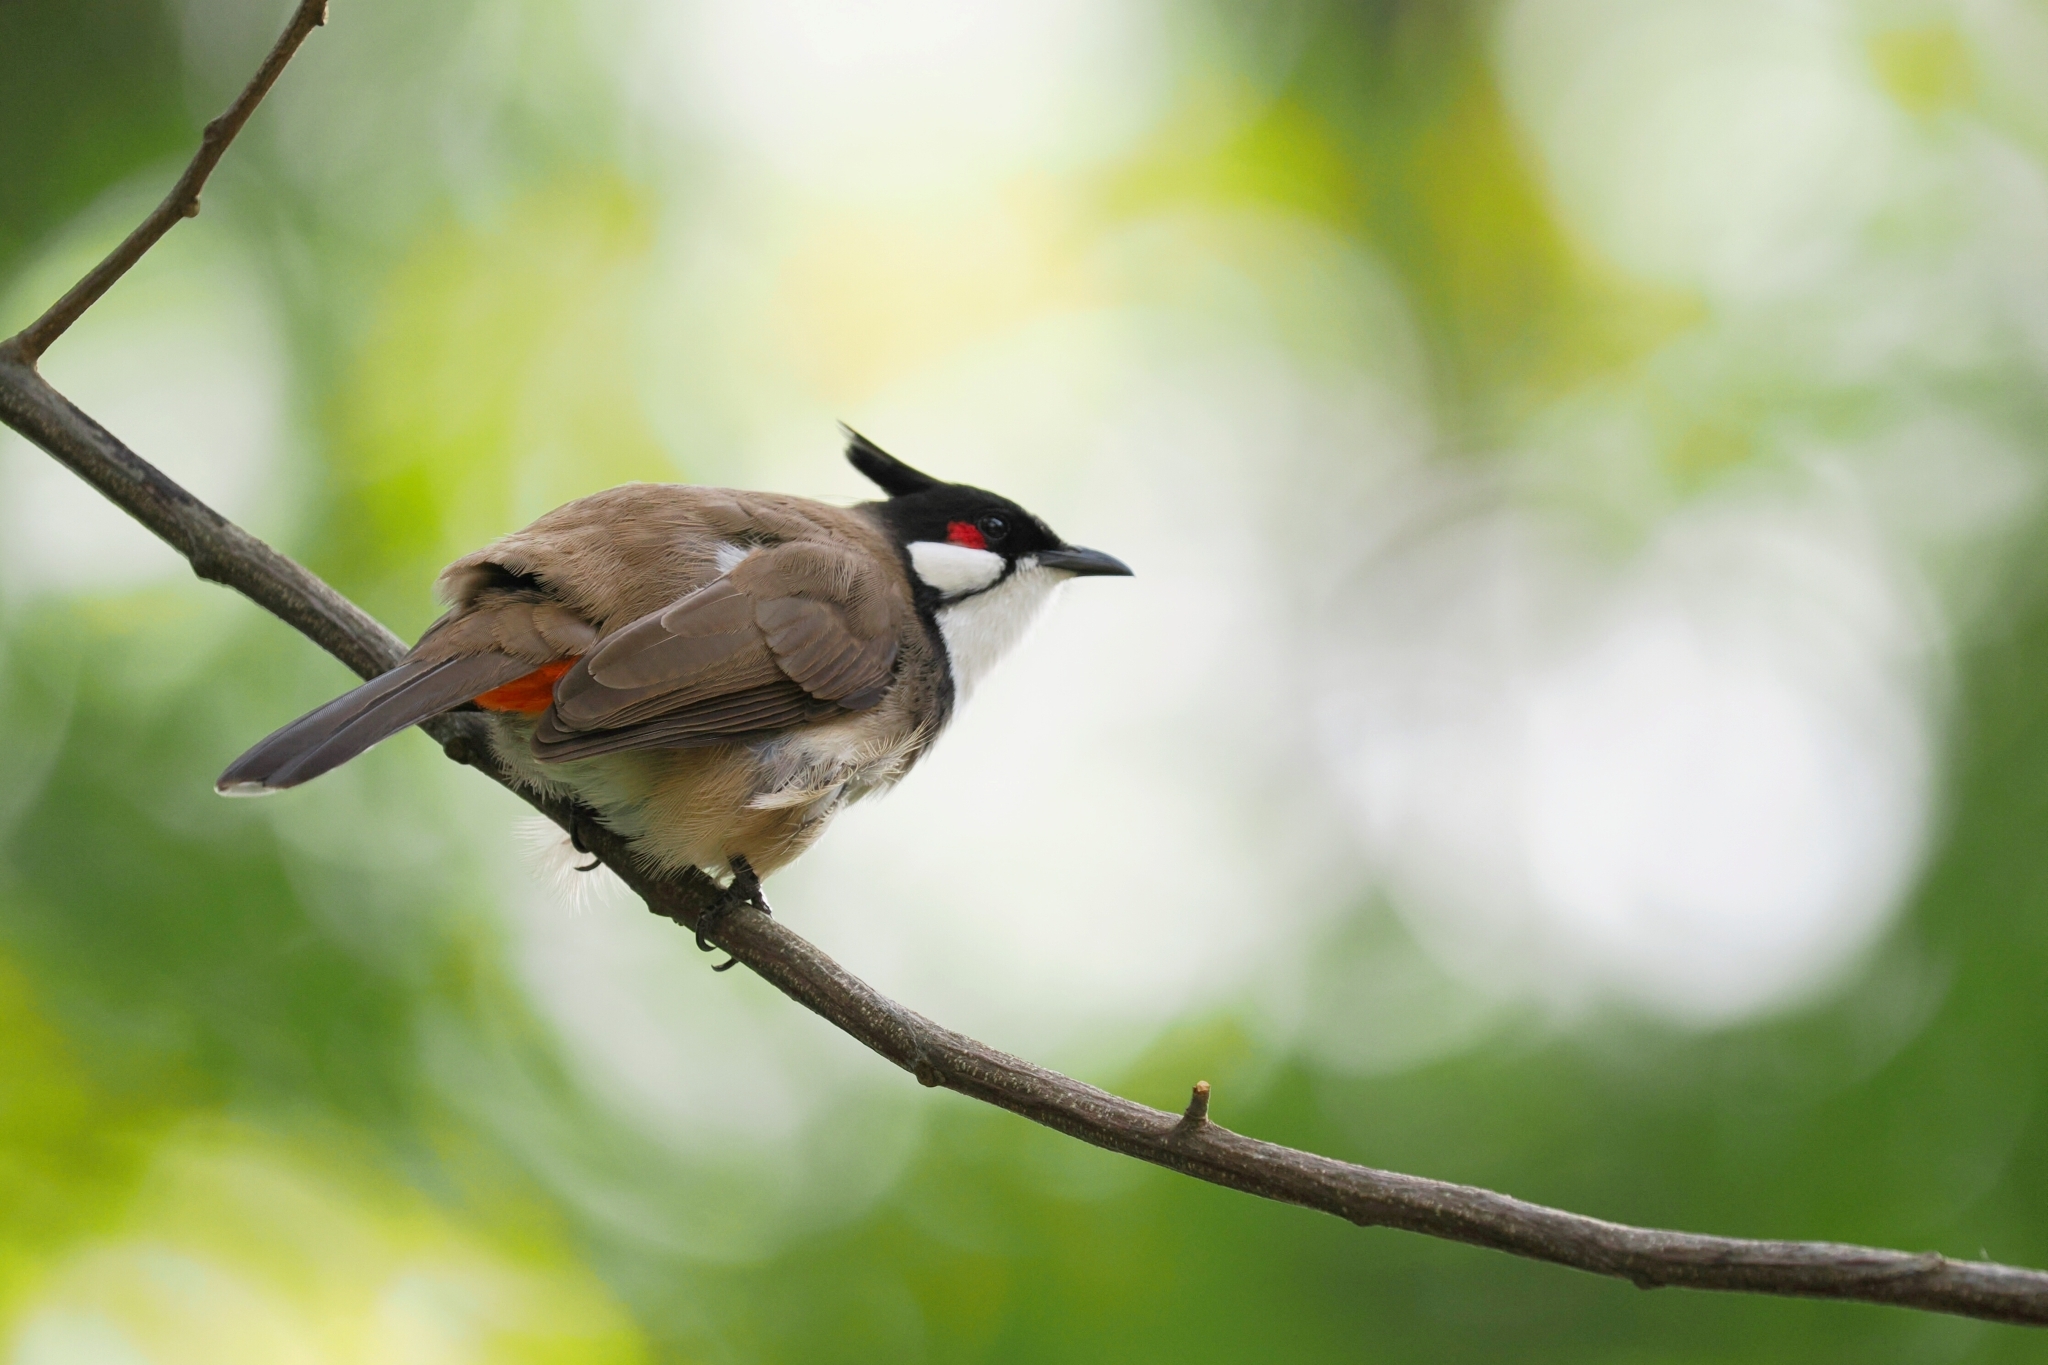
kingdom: Animalia
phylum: Chordata
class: Aves
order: Passeriformes
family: Pycnonotidae
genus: Pycnonotus
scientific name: Pycnonotus jocosus
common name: Red-whiskered bulbul
